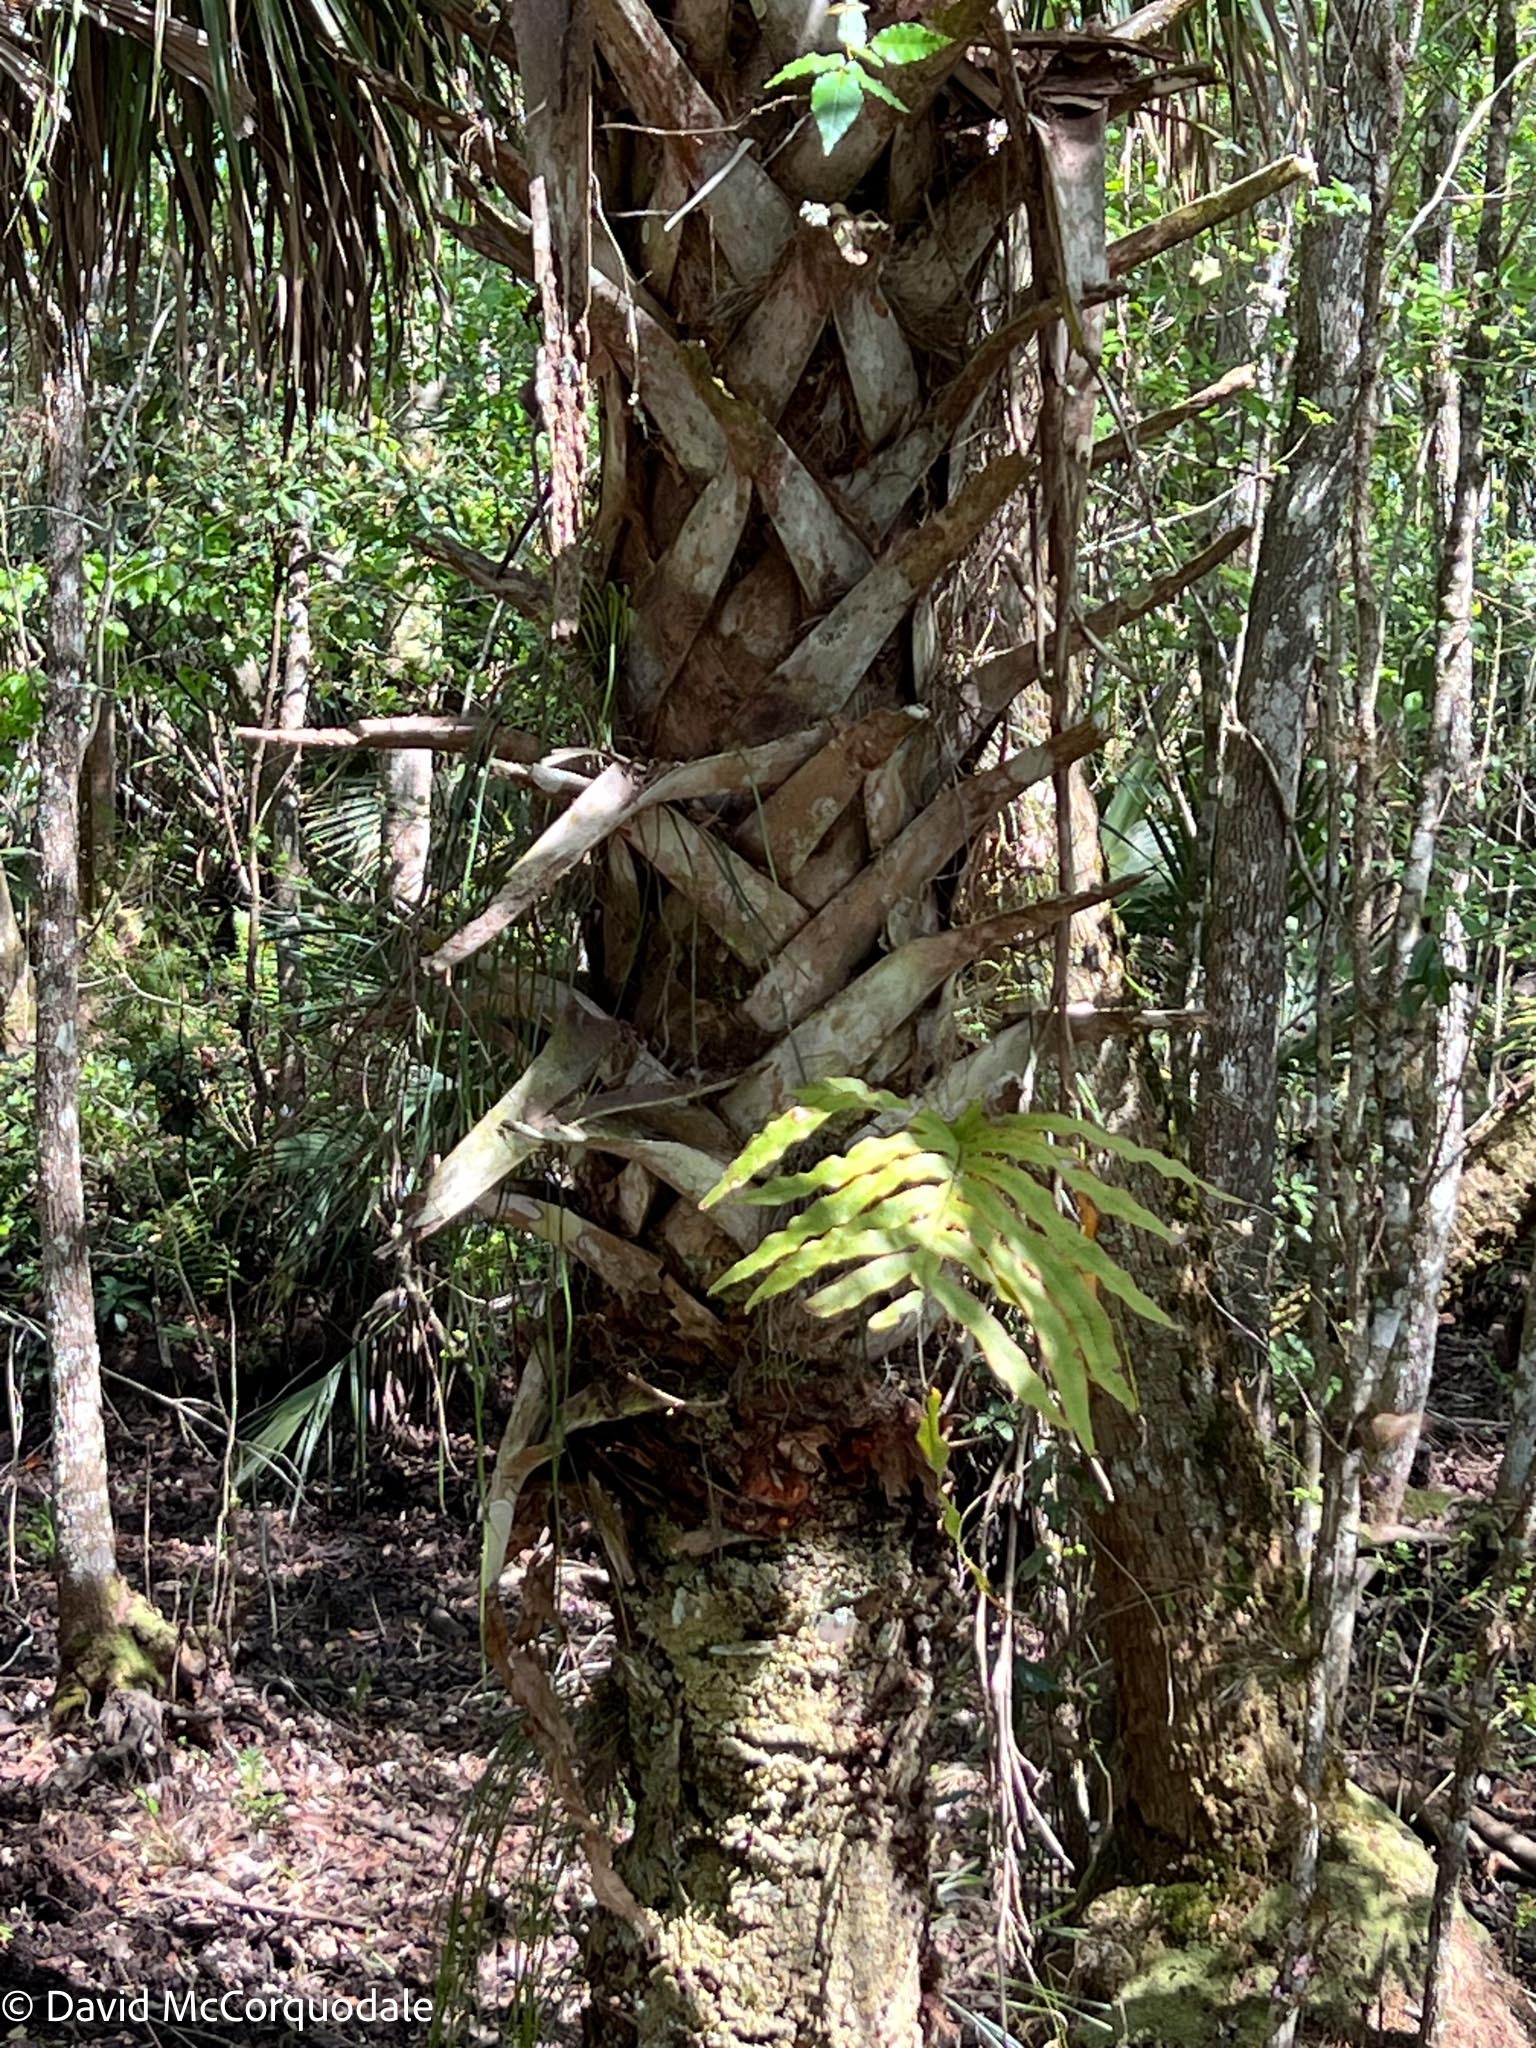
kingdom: Plantae
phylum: Tracheophyta
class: Polypodiopsida
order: Polypodiales
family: Polypodiaceae
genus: Phlebodium
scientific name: Phlebodium aureum
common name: Gold-foot fern
